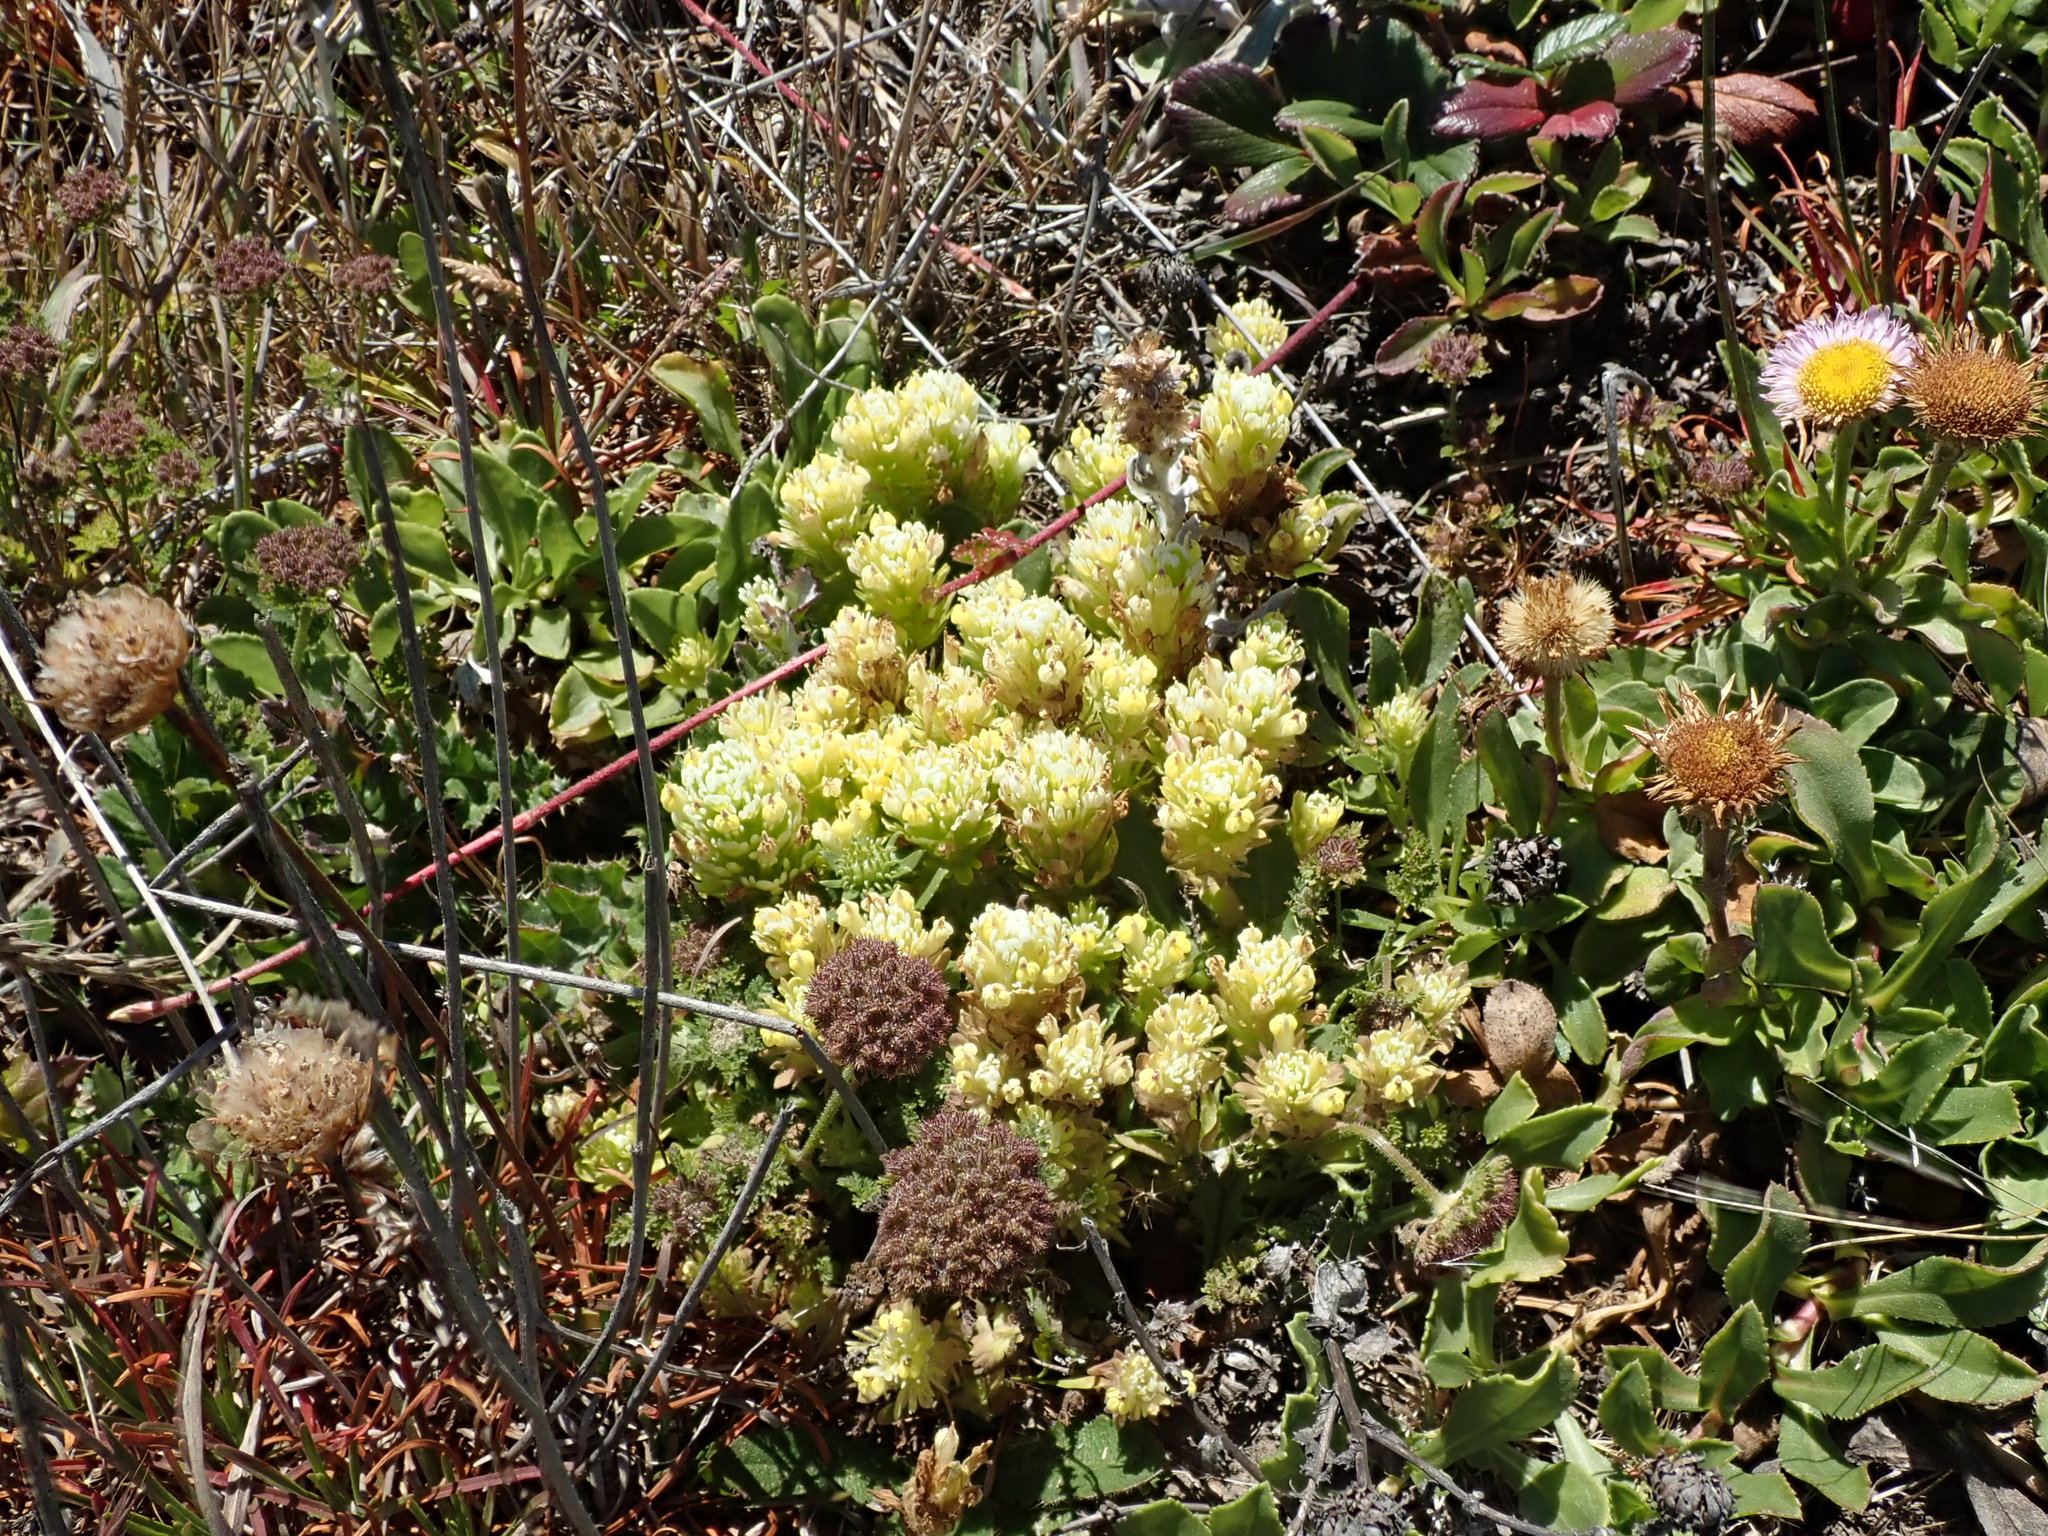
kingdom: Plantae
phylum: Tracheophyta
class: Magnoliopsida
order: Lamiales
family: Orobanchaceae
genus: Castilleja
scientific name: Castilleja ambigua
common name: Johnny-nip
